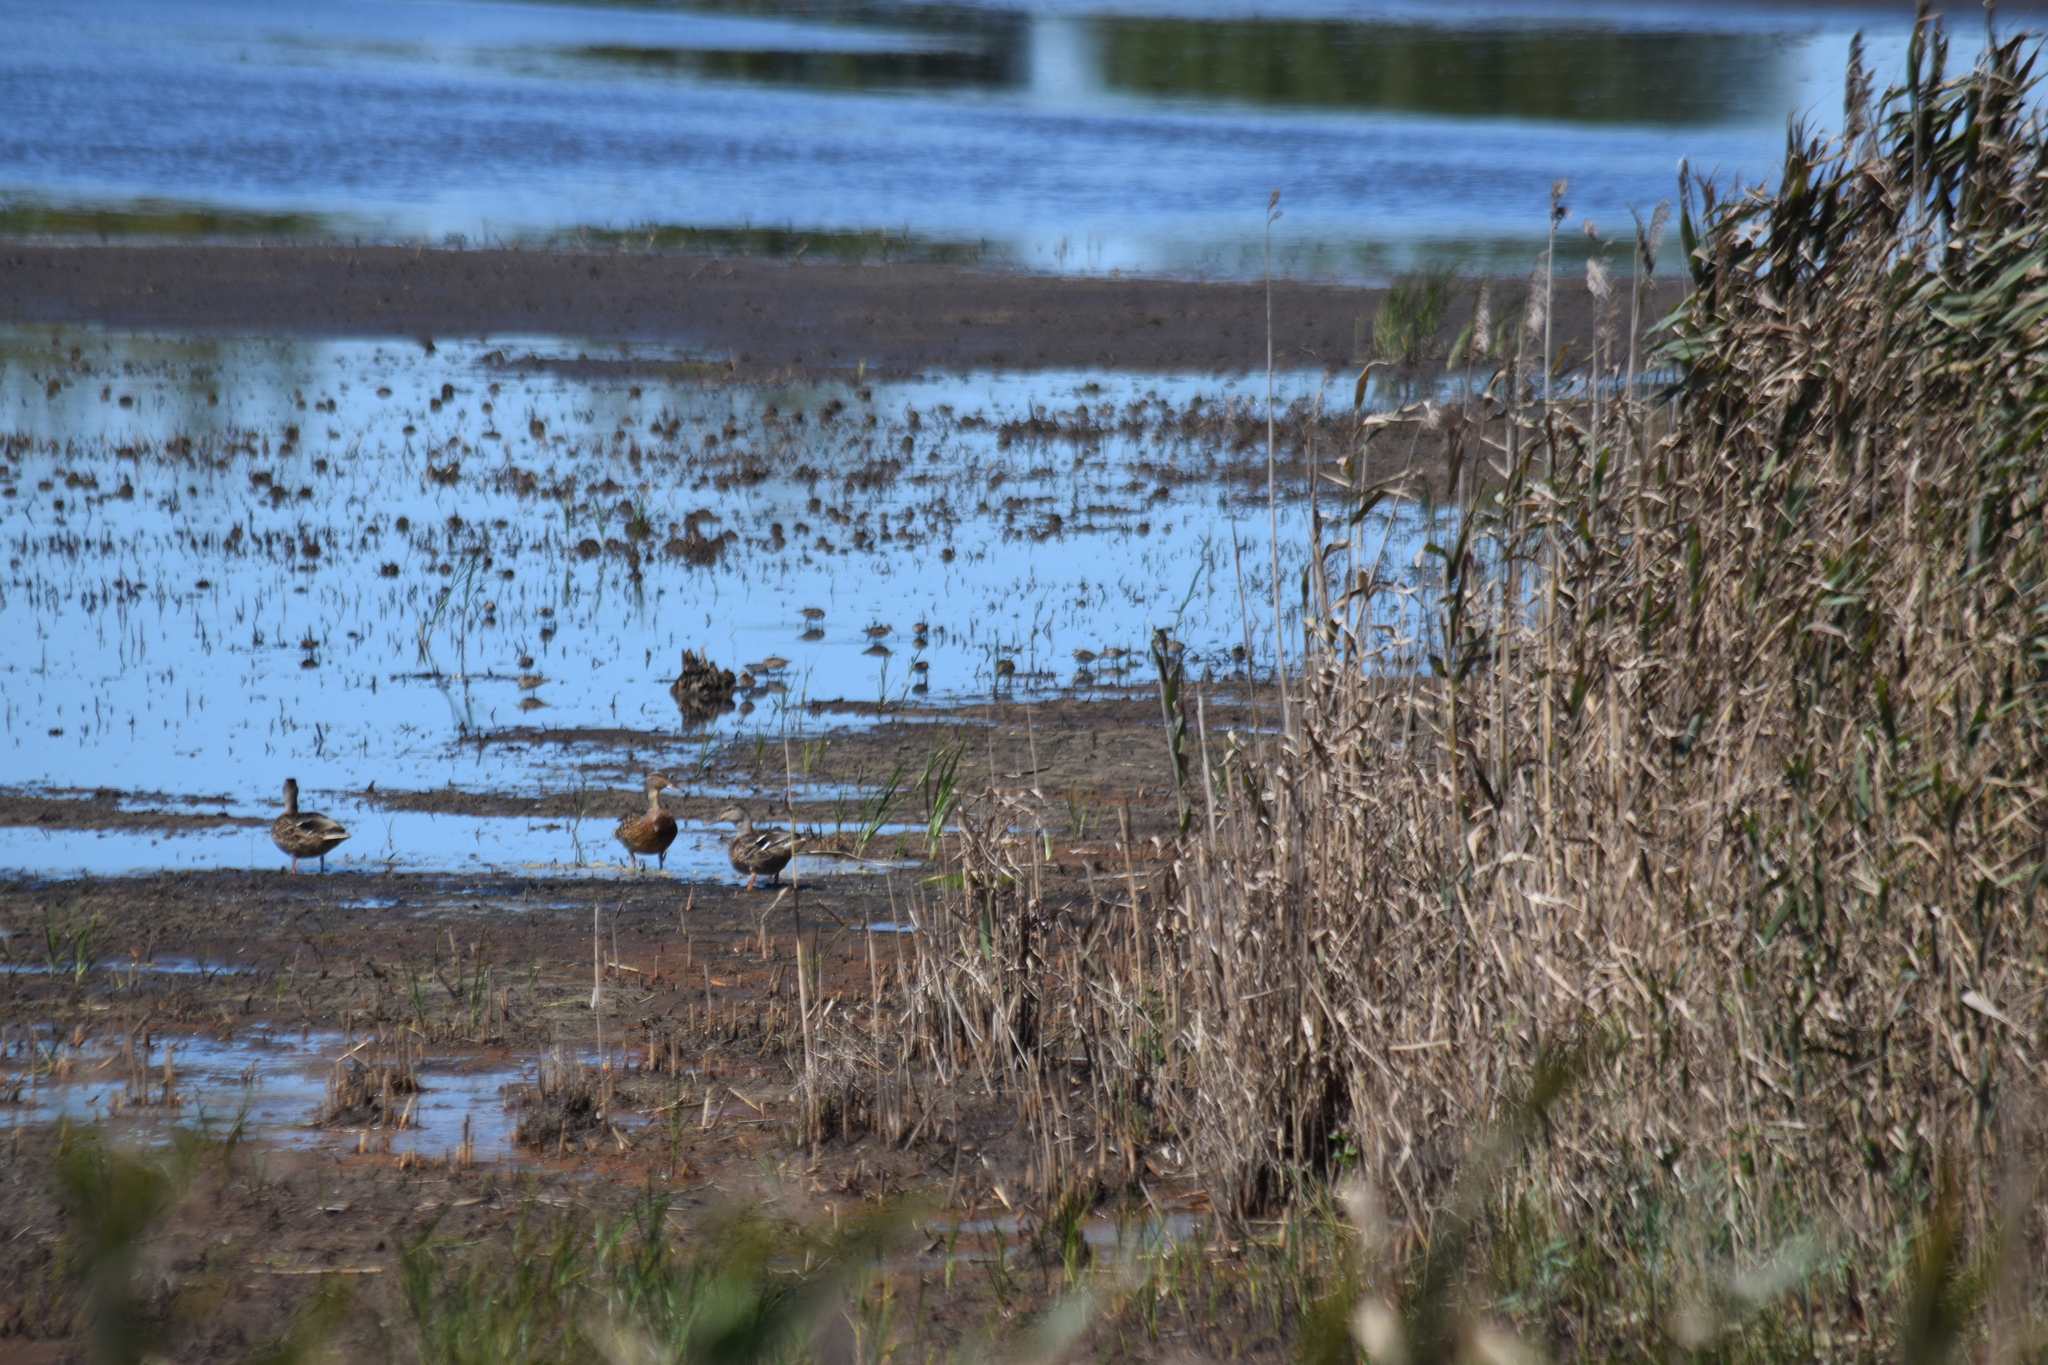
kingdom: Animalia
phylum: Chordata
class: Aves
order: Anseriformes
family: Anatidae
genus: Anas
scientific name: Anas platyrhynchos
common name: Mallard
